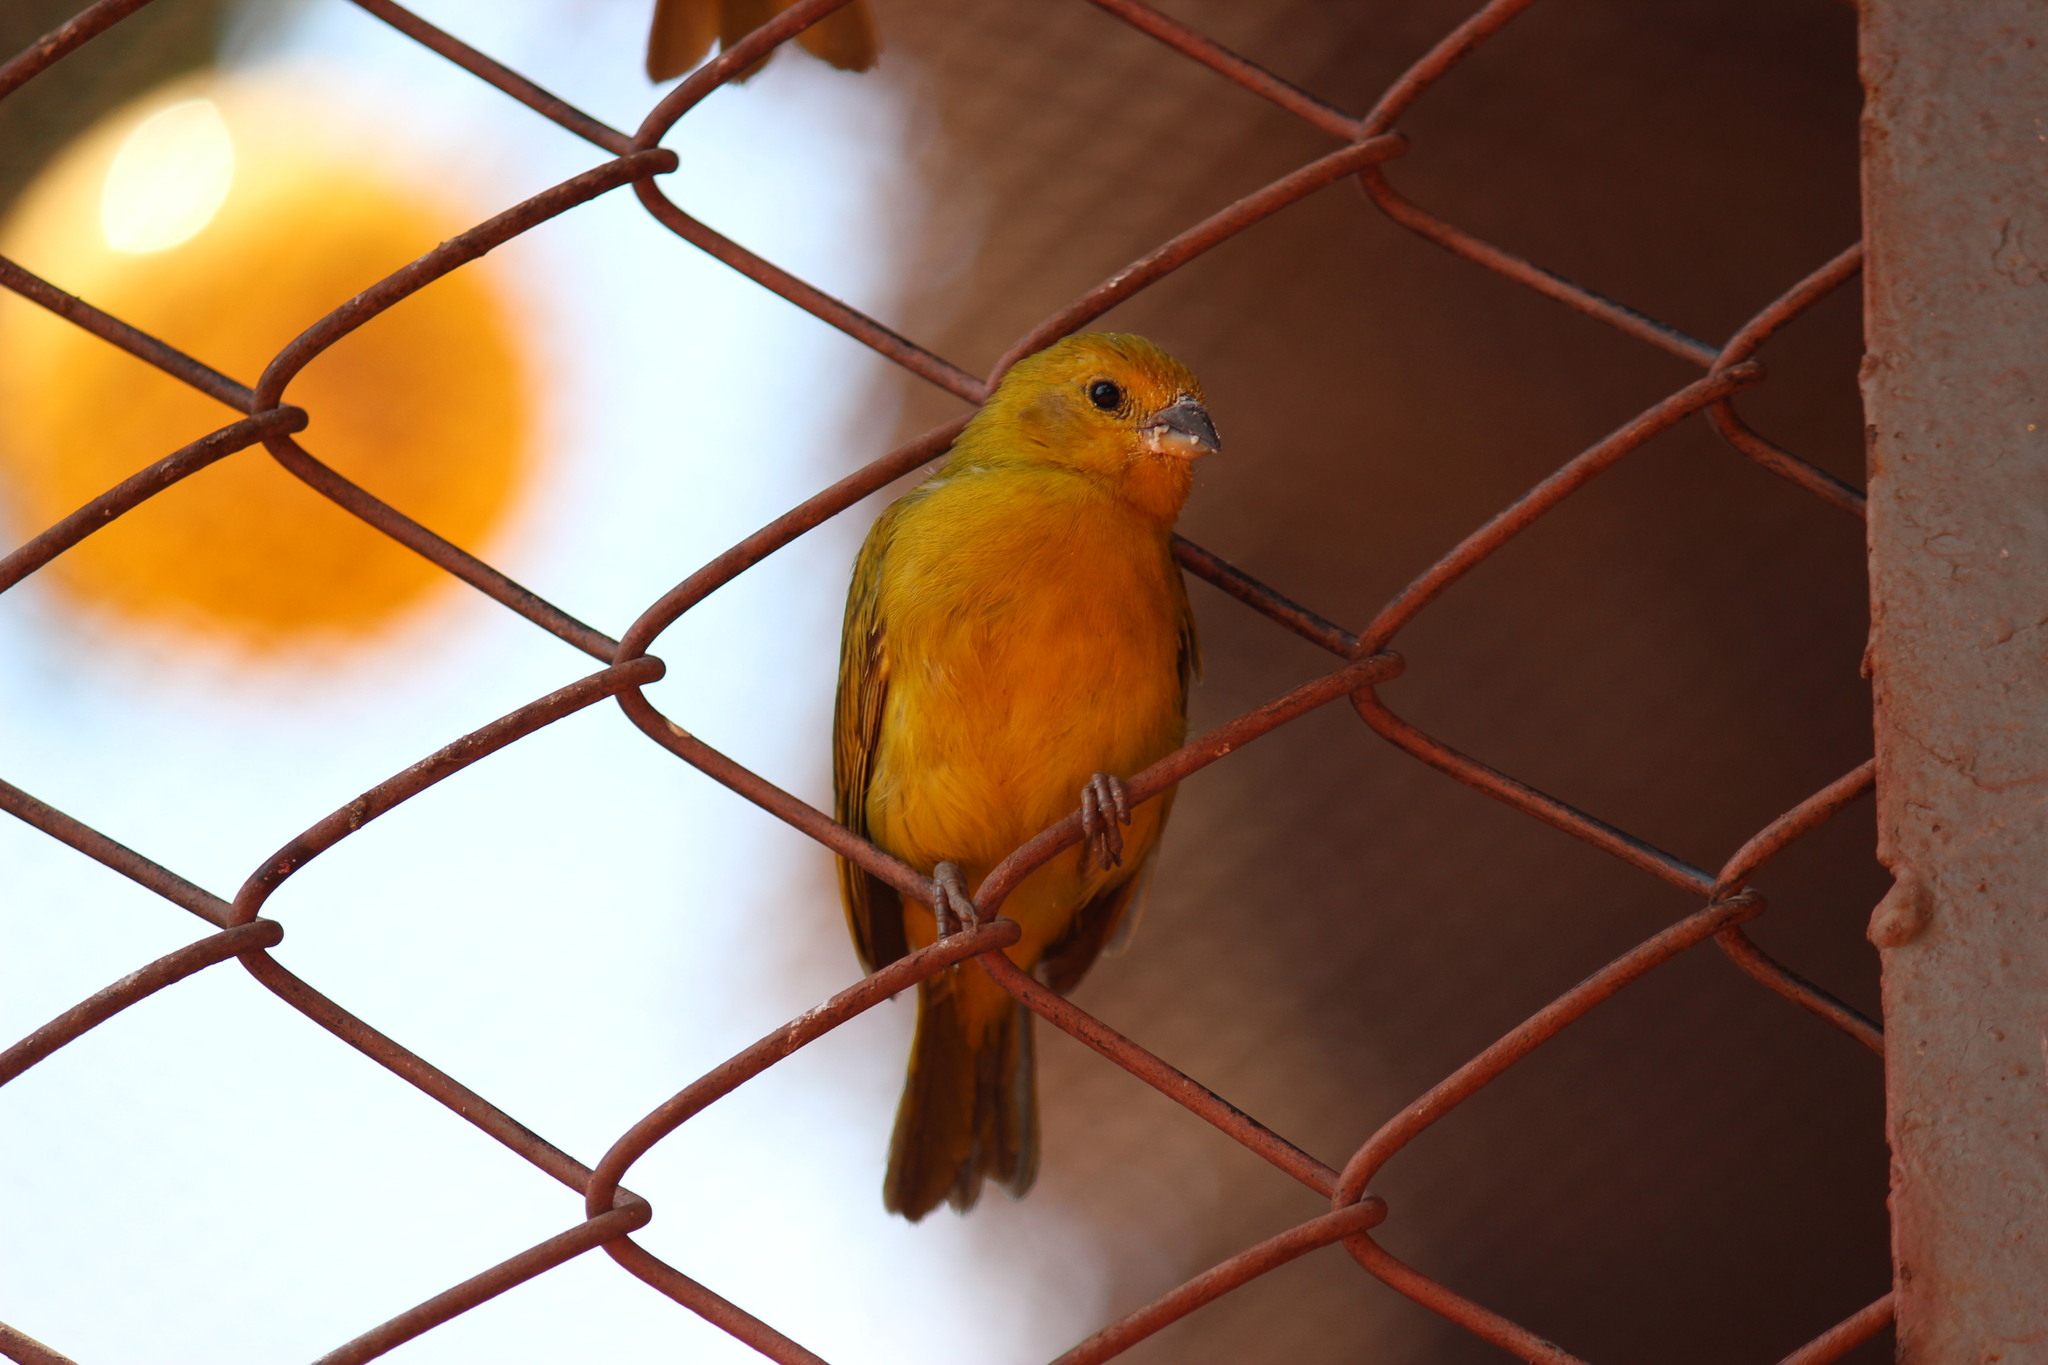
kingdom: Animalia
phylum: Chordata
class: Aves
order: Passeriformes
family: Thraupidae
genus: Sicalis
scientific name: Sicalis flaveola
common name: Saffron finch
